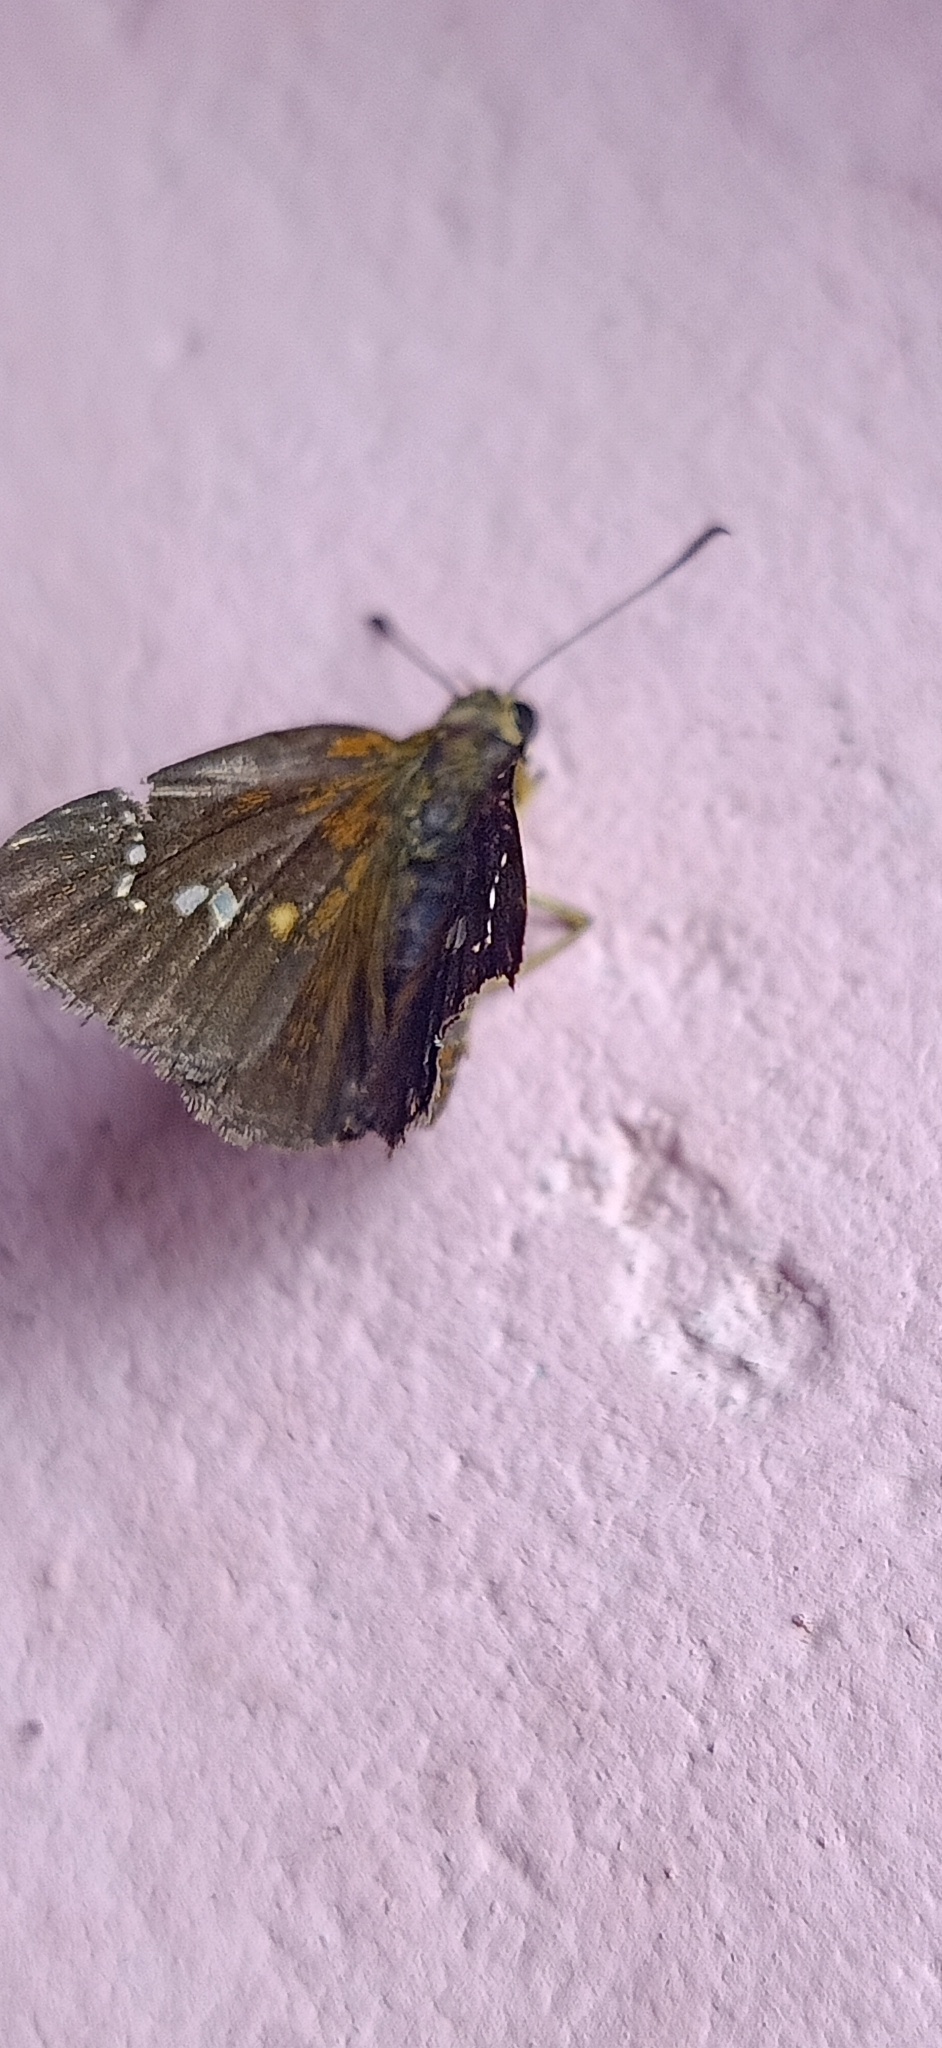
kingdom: Animalia
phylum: Arthropoda
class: Insecta
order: Lepidoptera
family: Hesperiidae
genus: Iambrix
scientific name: Iambrix salsala
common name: Chestnut bob
